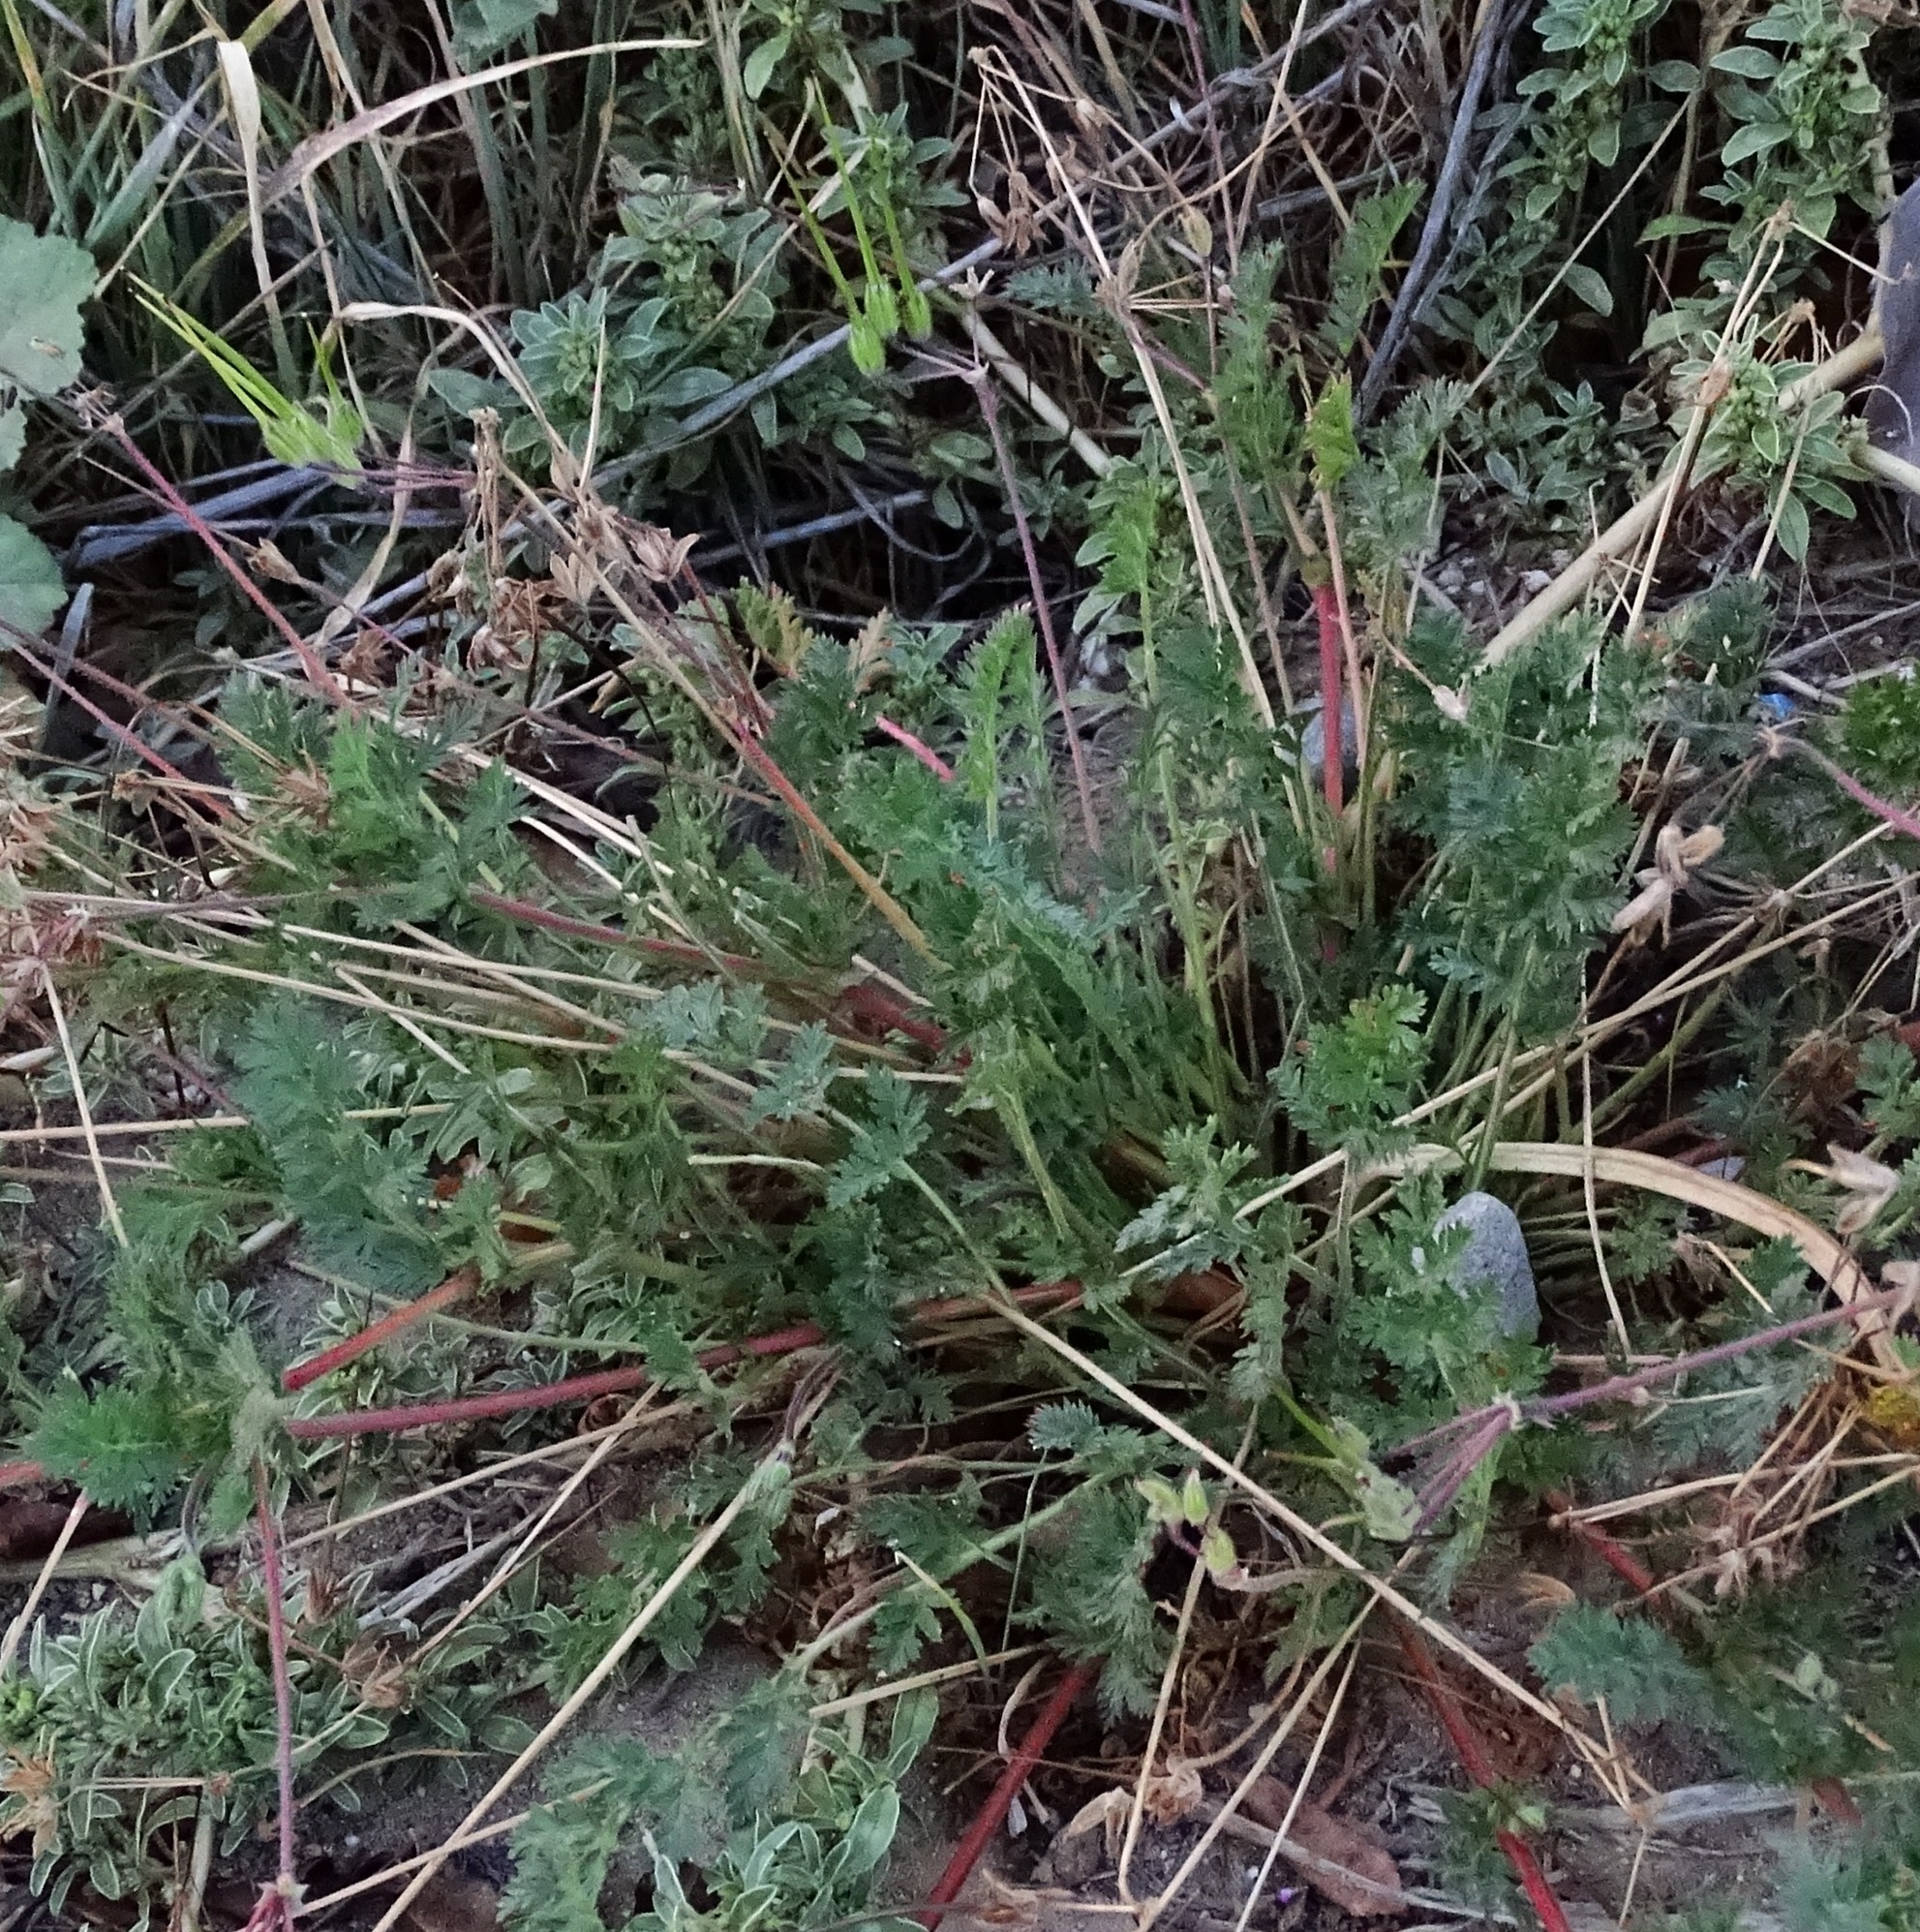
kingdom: Plantae
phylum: Tracheophyta
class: Magnoliopsida
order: Geraniales
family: Geraniaceae
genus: Erodium
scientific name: Erodium cicutarium
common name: Common stork's-bill
